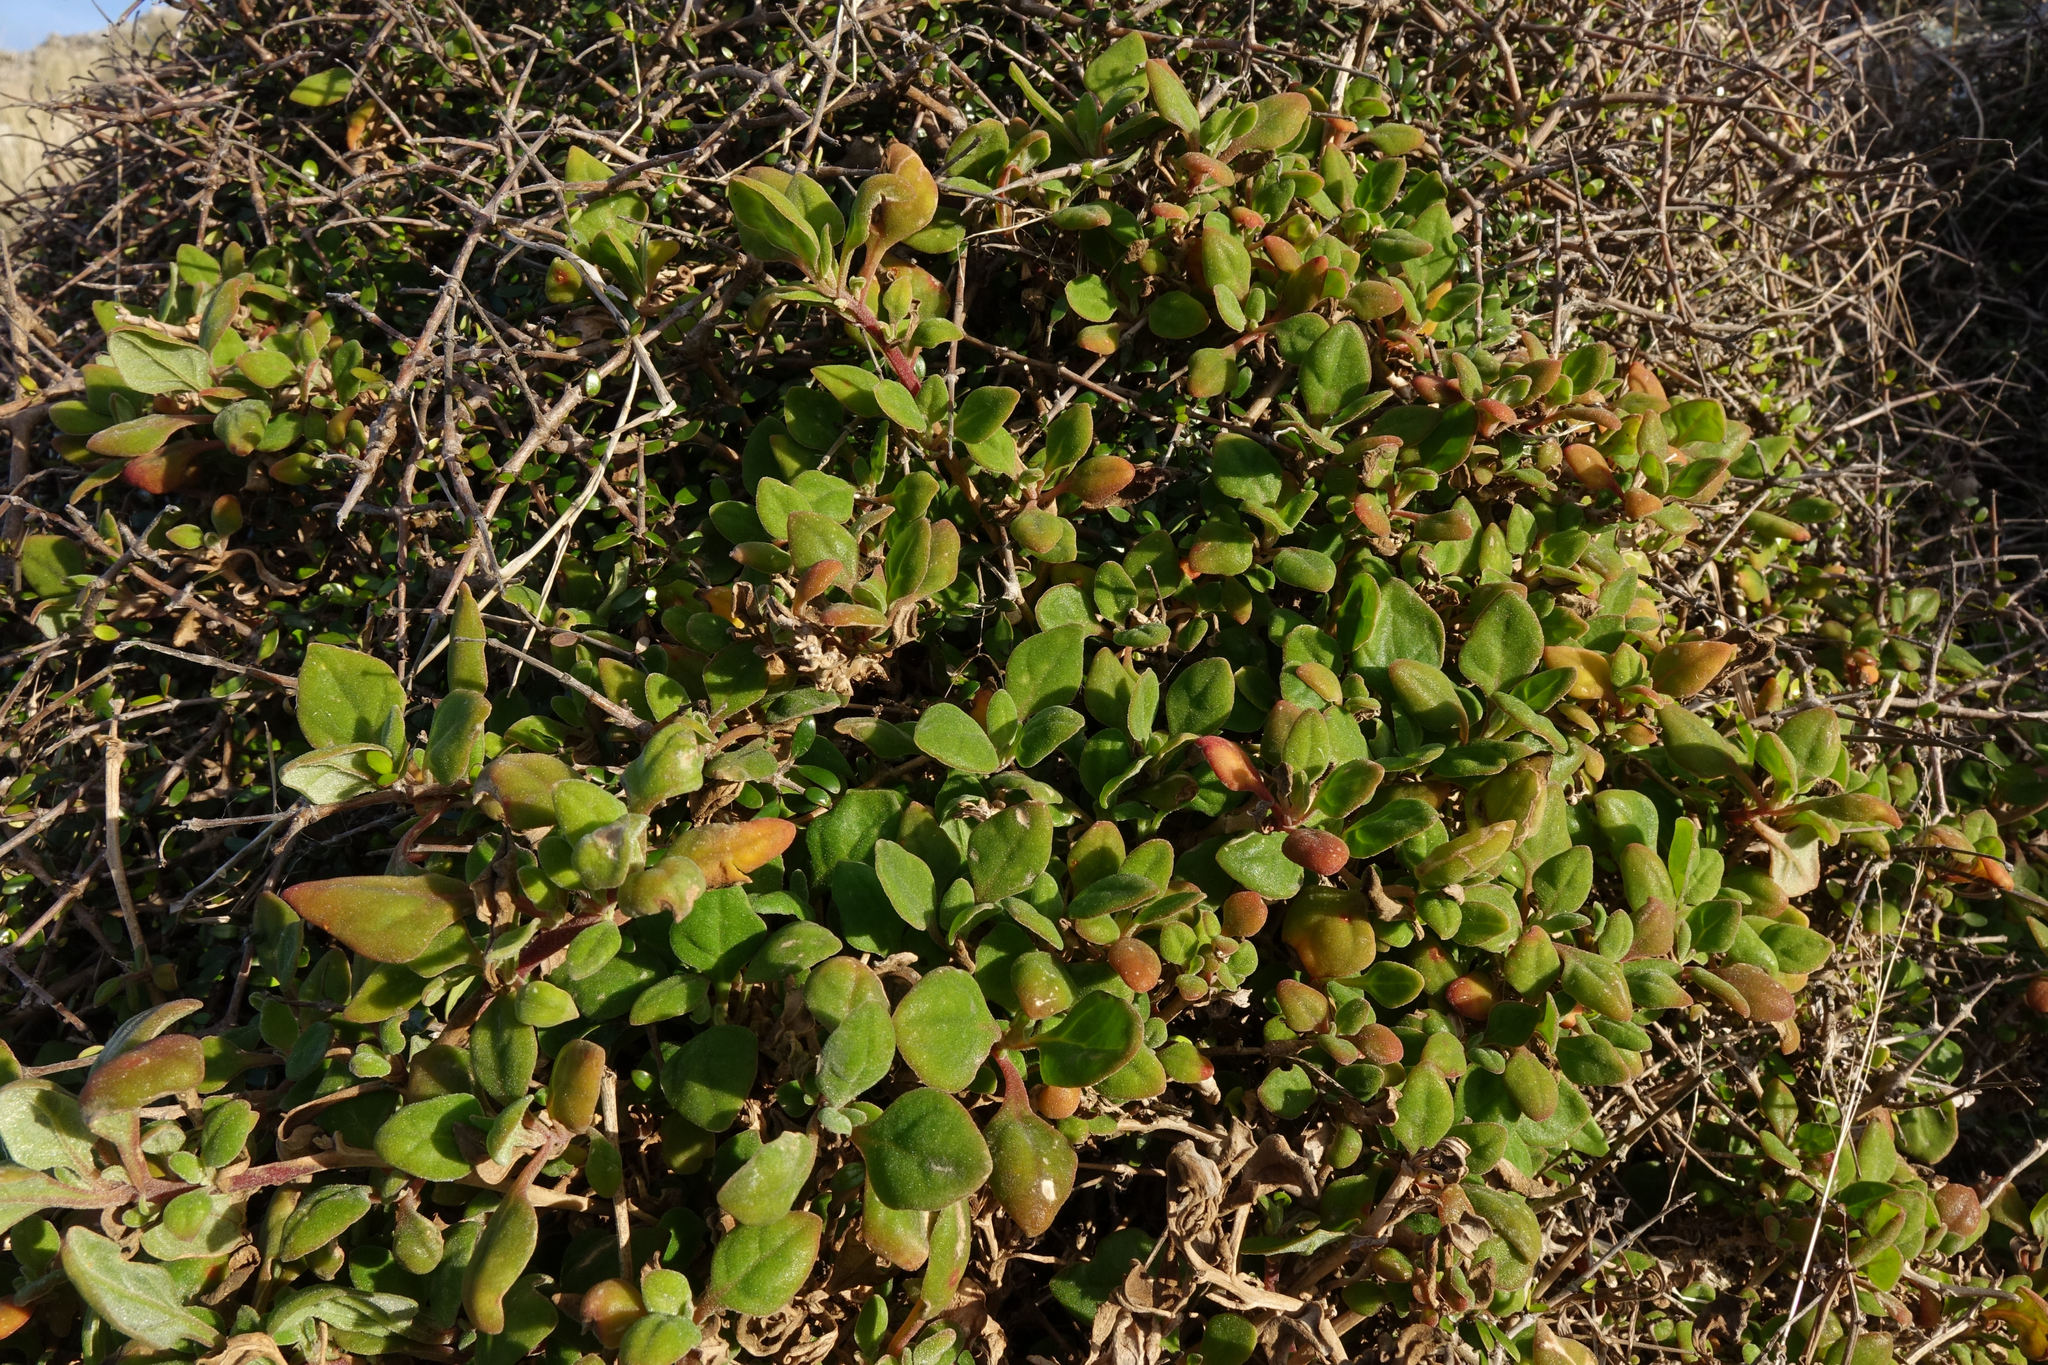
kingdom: Plantae
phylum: Tracheophyta
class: Magnoliopsida
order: Caryophyllales
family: Aizoaceae
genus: Tetragonia
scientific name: Tetragonia implexicoma
